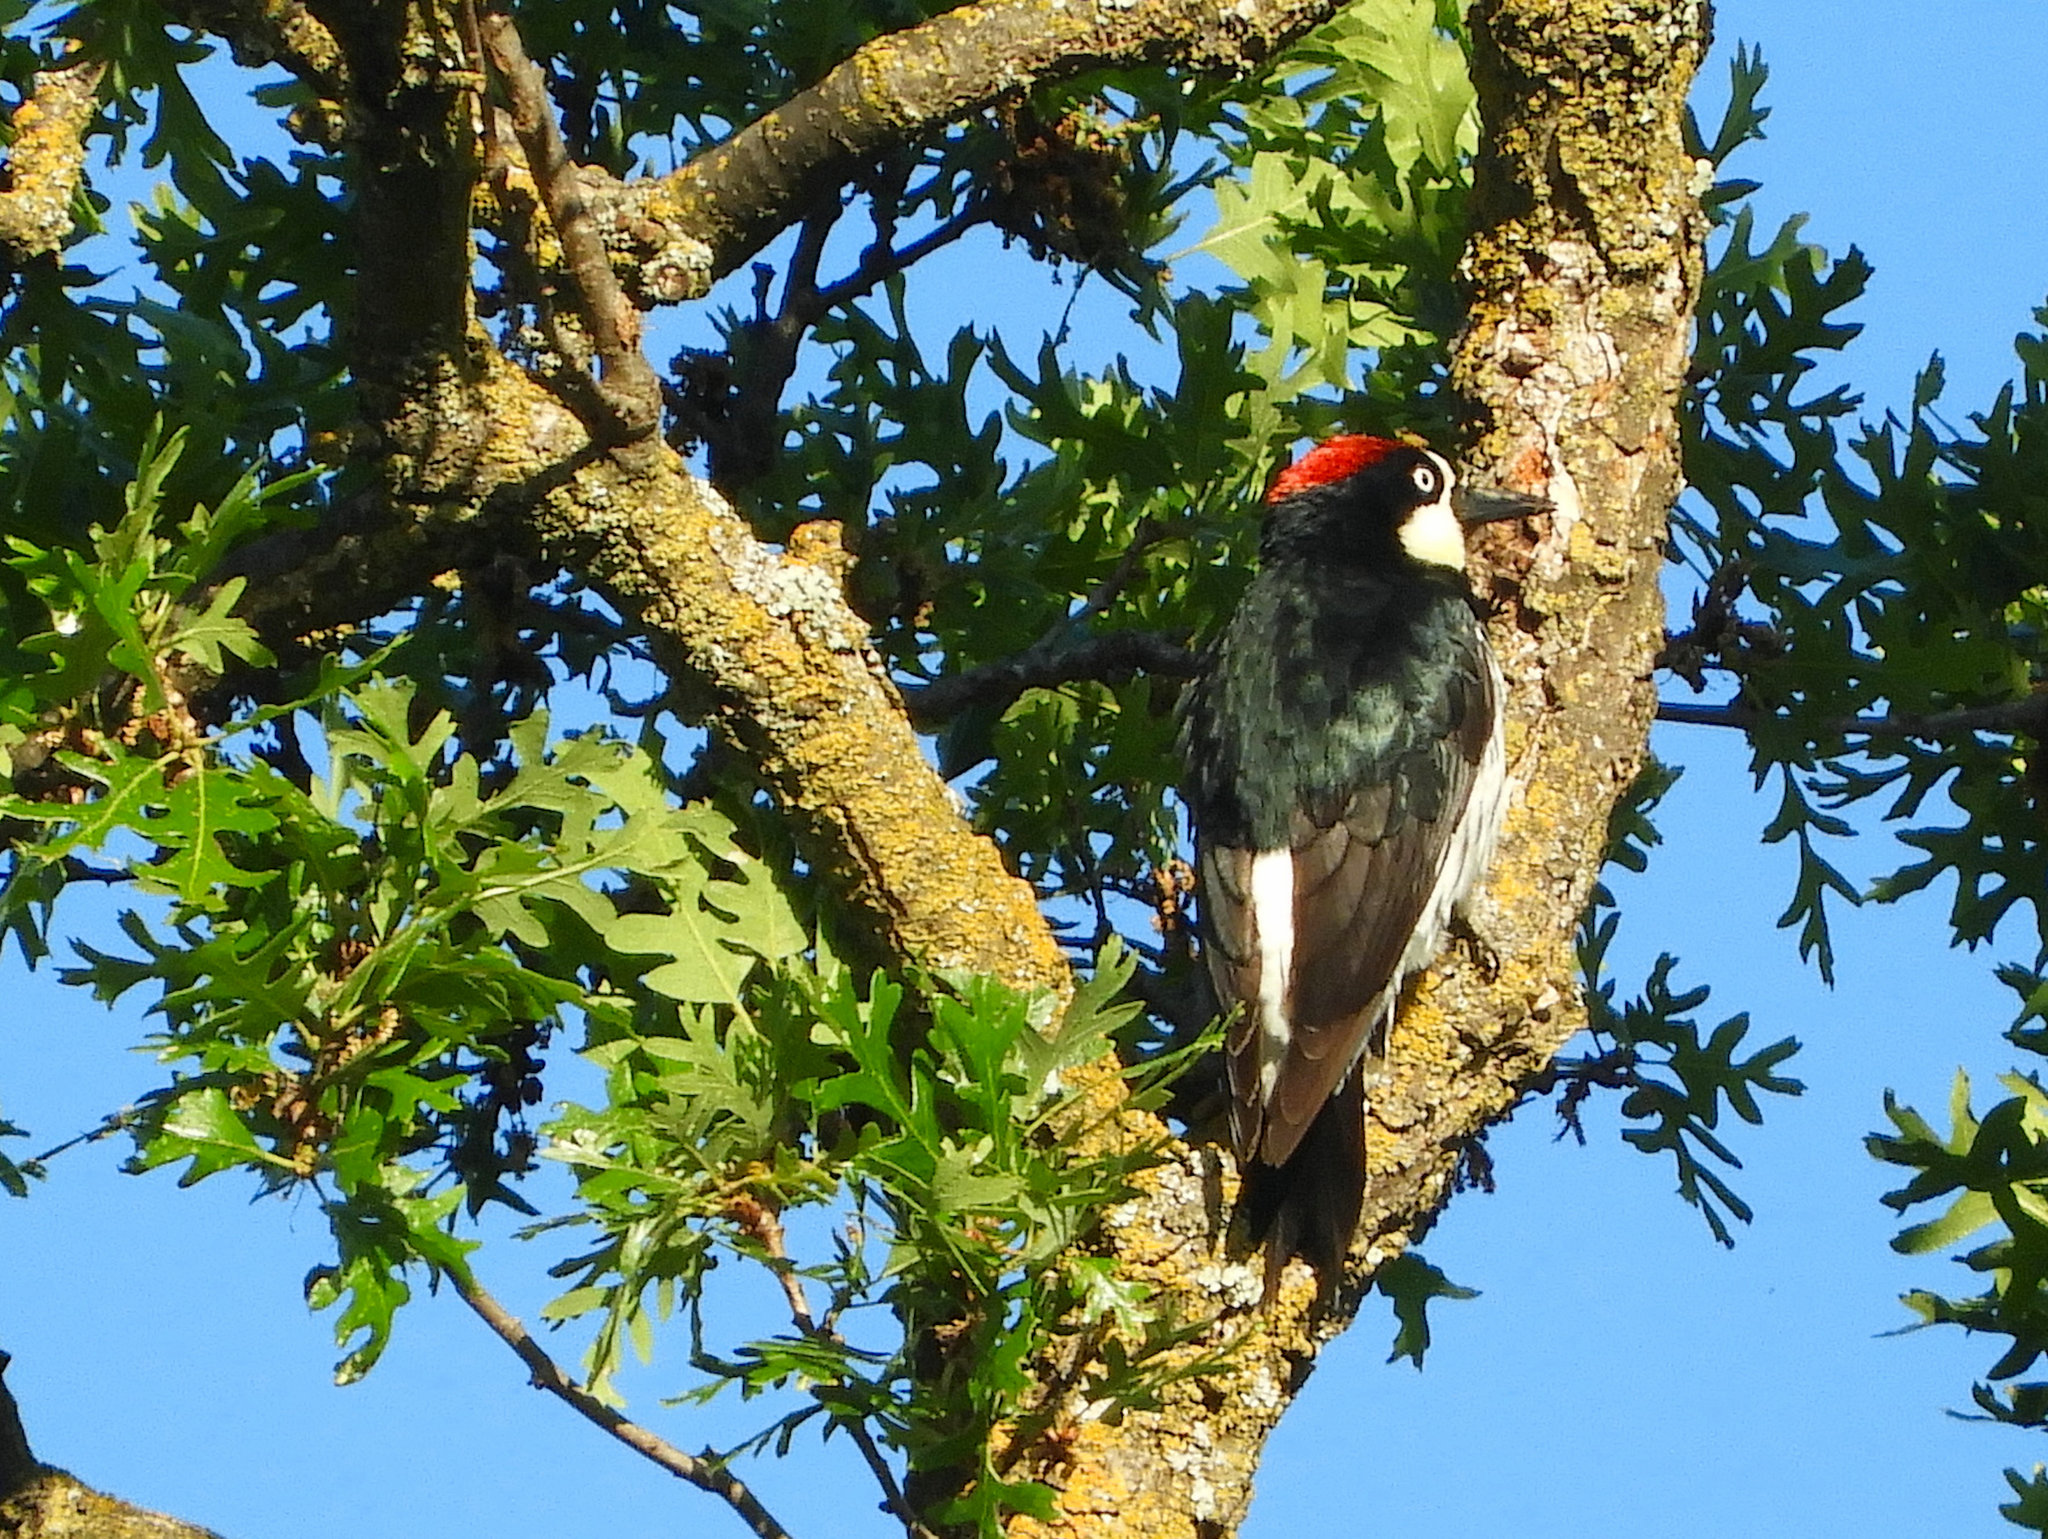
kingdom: Animalia
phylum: Chordata
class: Aves
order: Piciformes
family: Picidae
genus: Melanerpes
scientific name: Melanerpes formicivorus
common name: Acorn woodpecker
